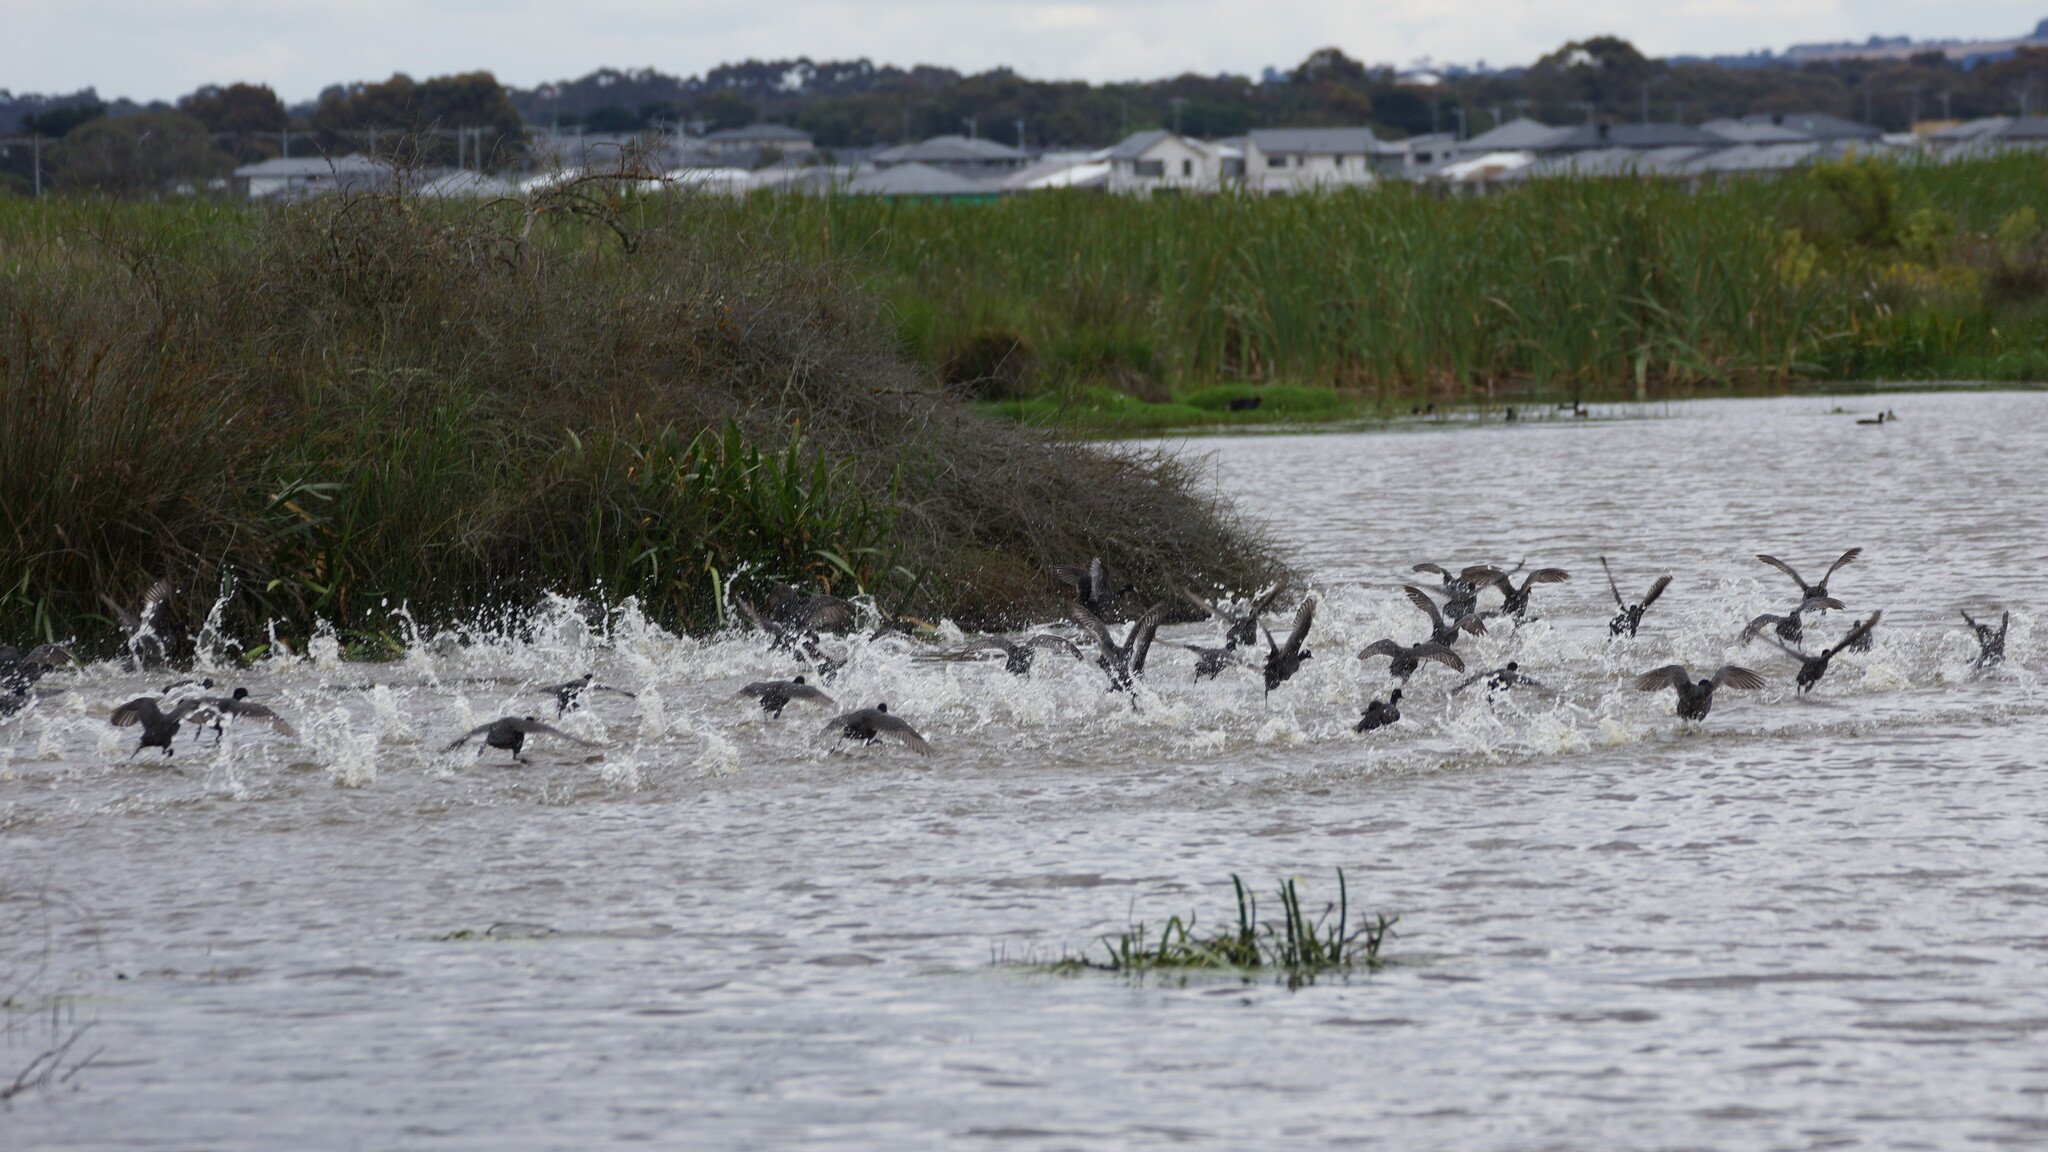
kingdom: Animalia
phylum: Chordata
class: Aves
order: Gruiformes
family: Rallidae
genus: Fulica
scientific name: Fulica atra
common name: Eurasian coot
